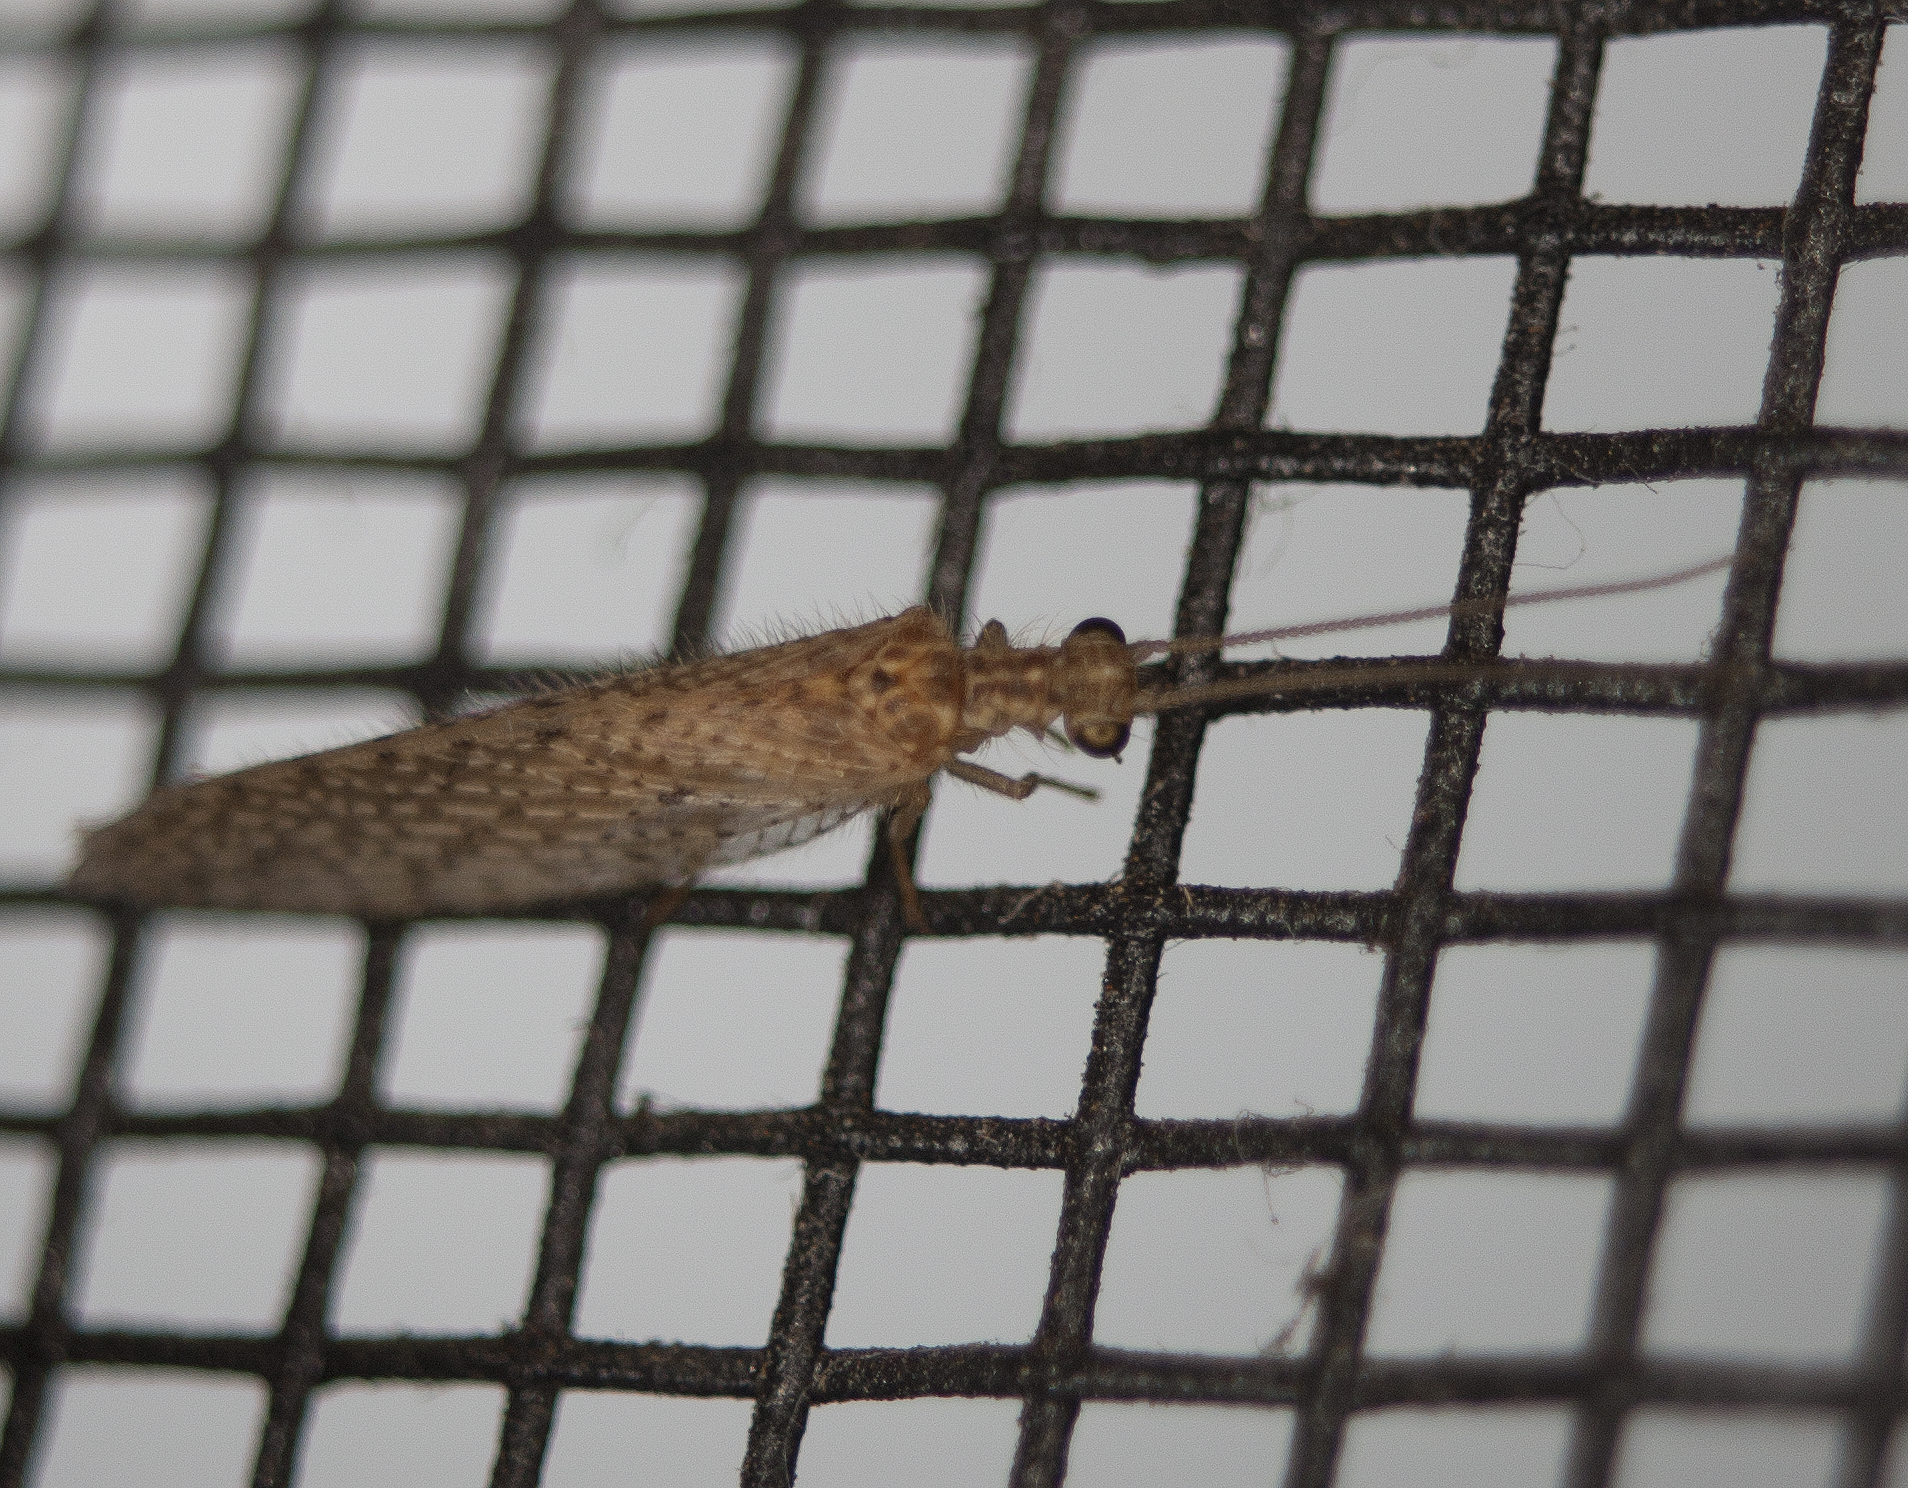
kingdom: Animalia
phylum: Arthropoda
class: Insecta
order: Neuroptera
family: Hemerobiidae
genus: Micromus
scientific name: Micromus tasmaniae
